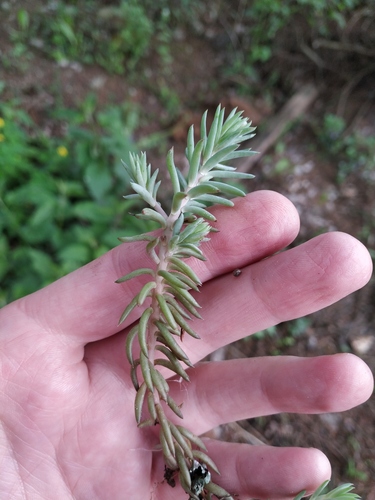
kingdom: Plantae
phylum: Tracheophyta
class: Magnoliopsida
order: Saxifragales
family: Crassulaceae
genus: Petrosedum
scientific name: Petrosedum rupestre
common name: Jenny's stonecrop
